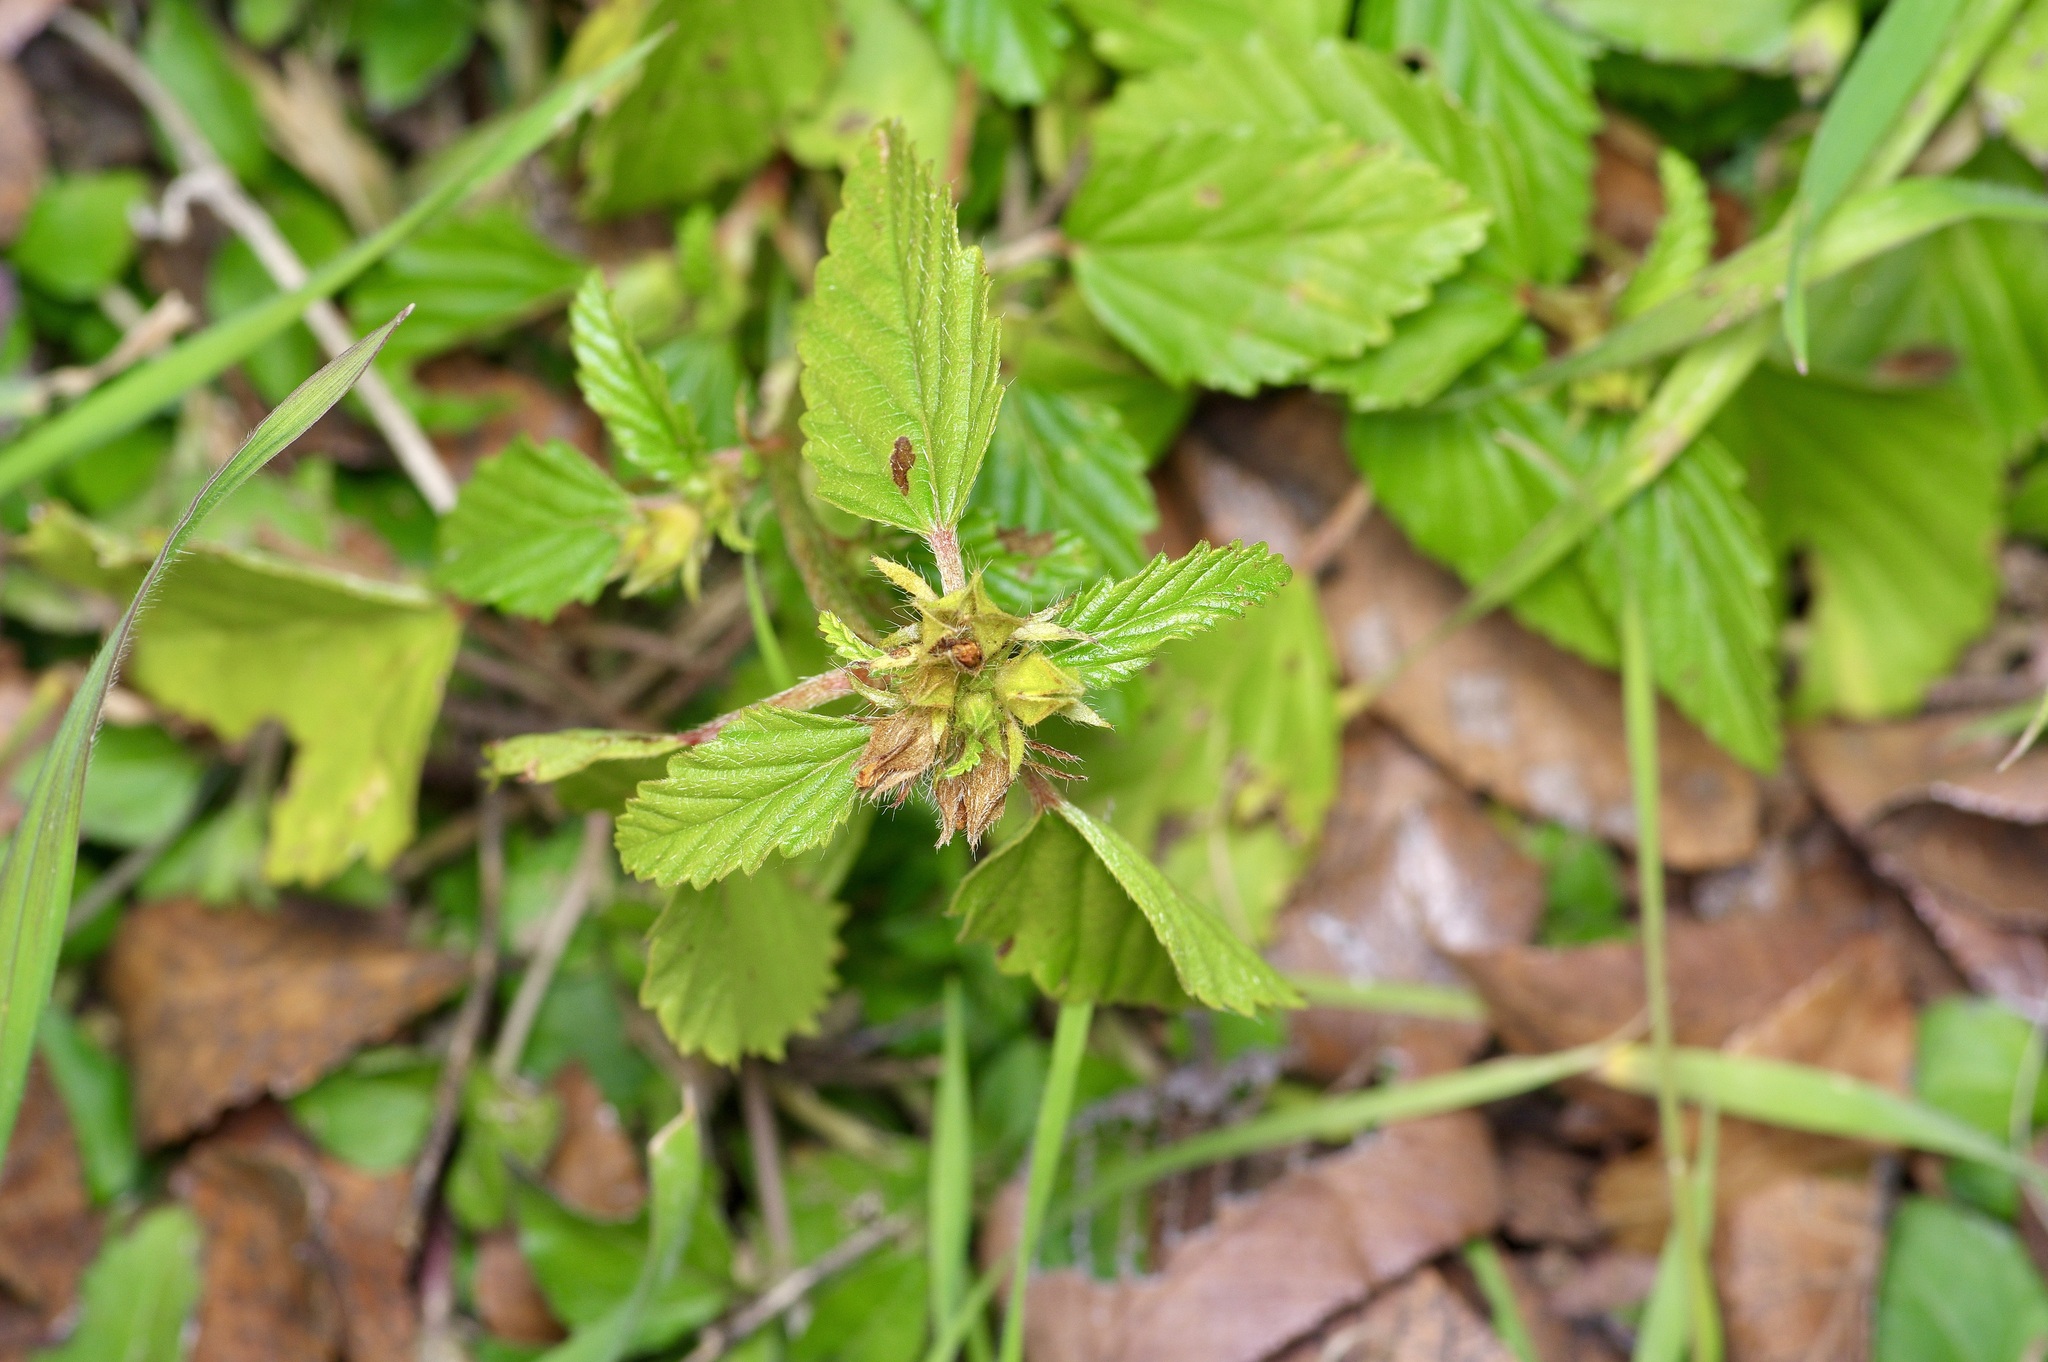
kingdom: Plantae
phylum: Tracheophyta
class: Magnoliopsida
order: Malvales
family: Malvaceae
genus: Malvastrum
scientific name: Malvastrum coromandelianum
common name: Threelobe false mallow
